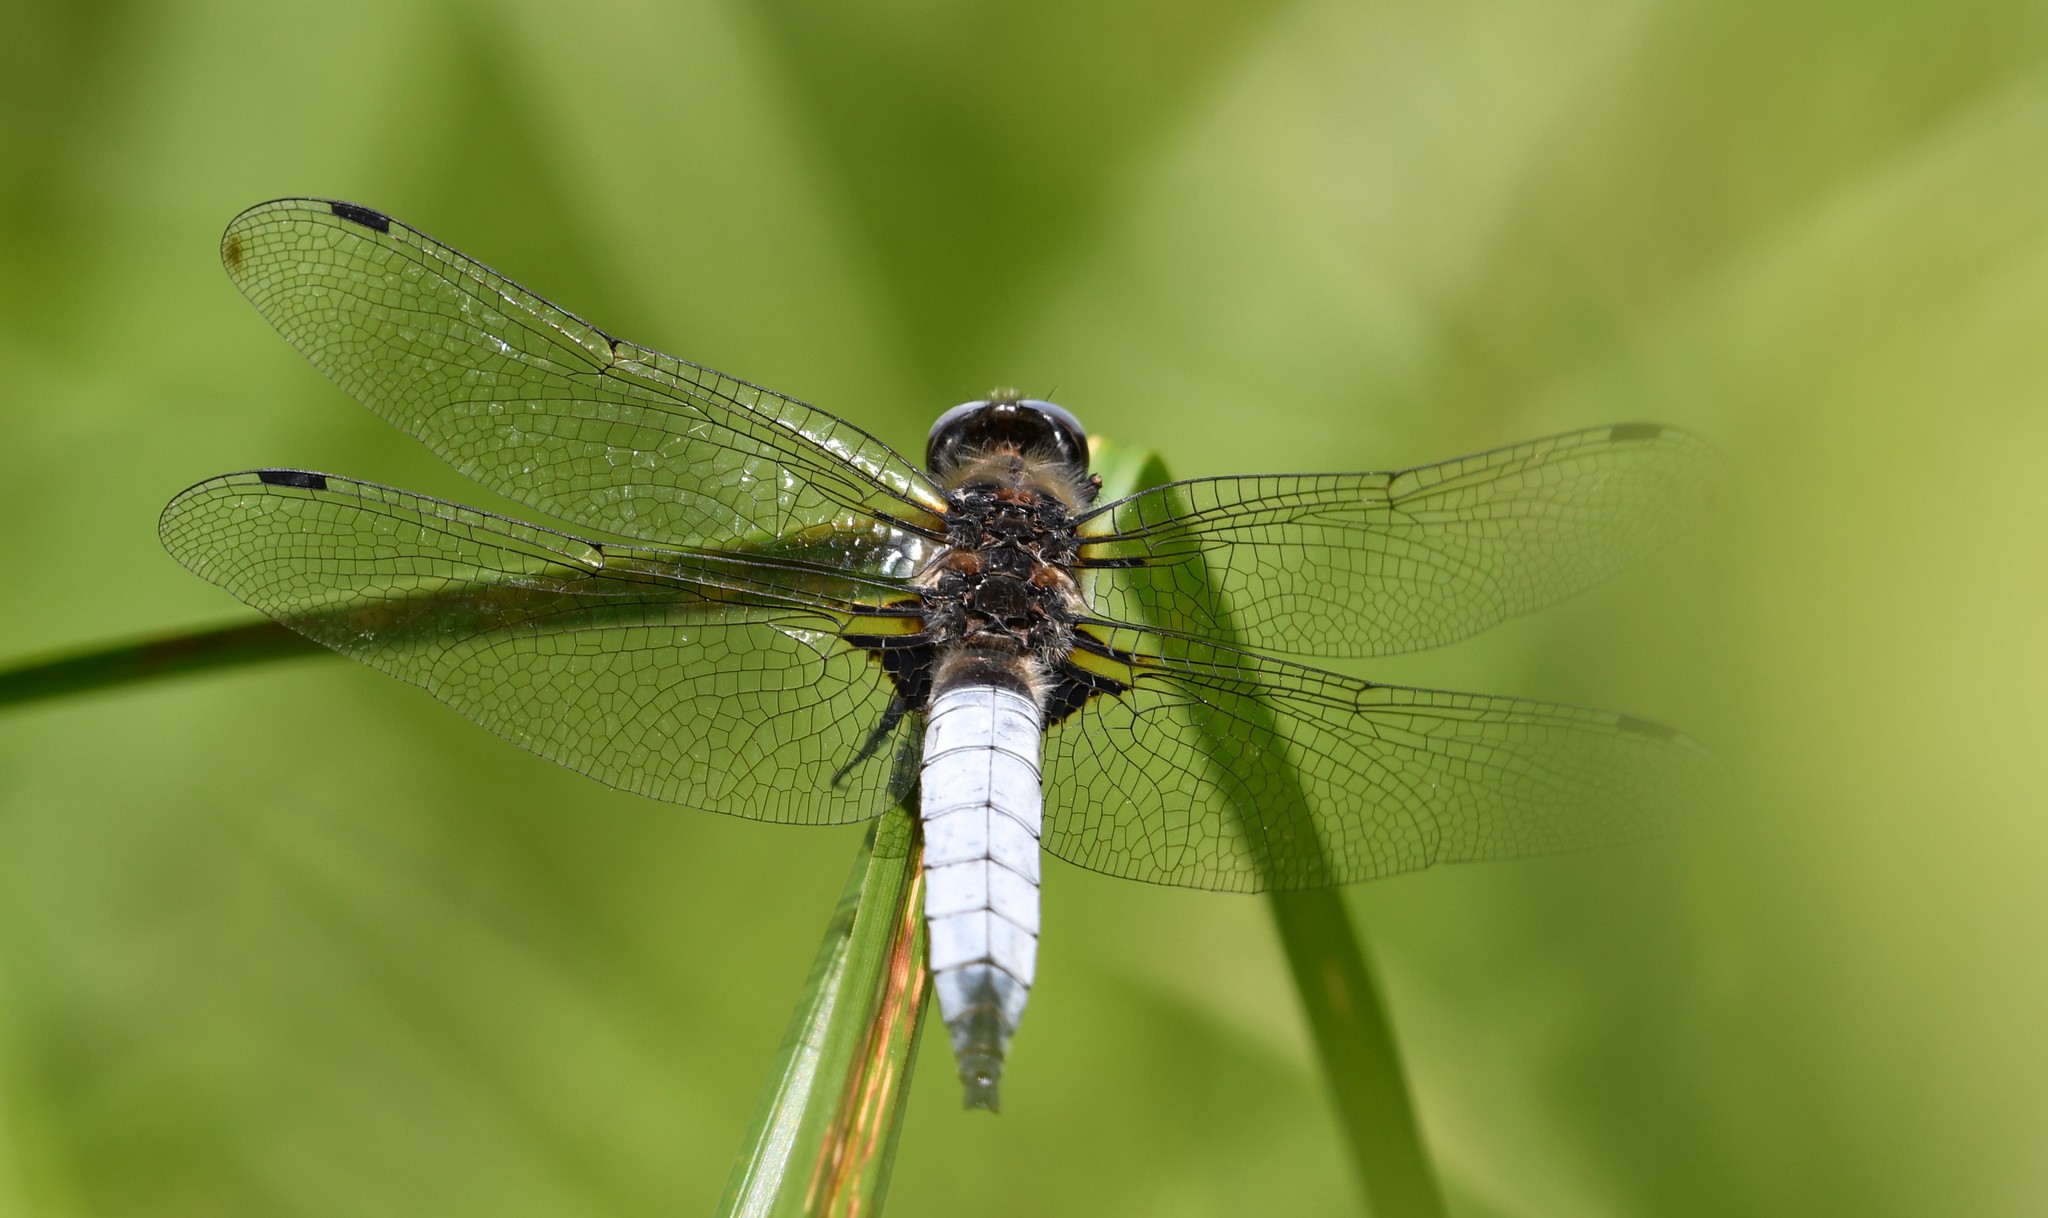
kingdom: Animalia
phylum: Arthropoda
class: Insecta
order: Odonata
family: Libellulidae
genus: Libellula
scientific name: Libellula fulva
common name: Blue chaser
